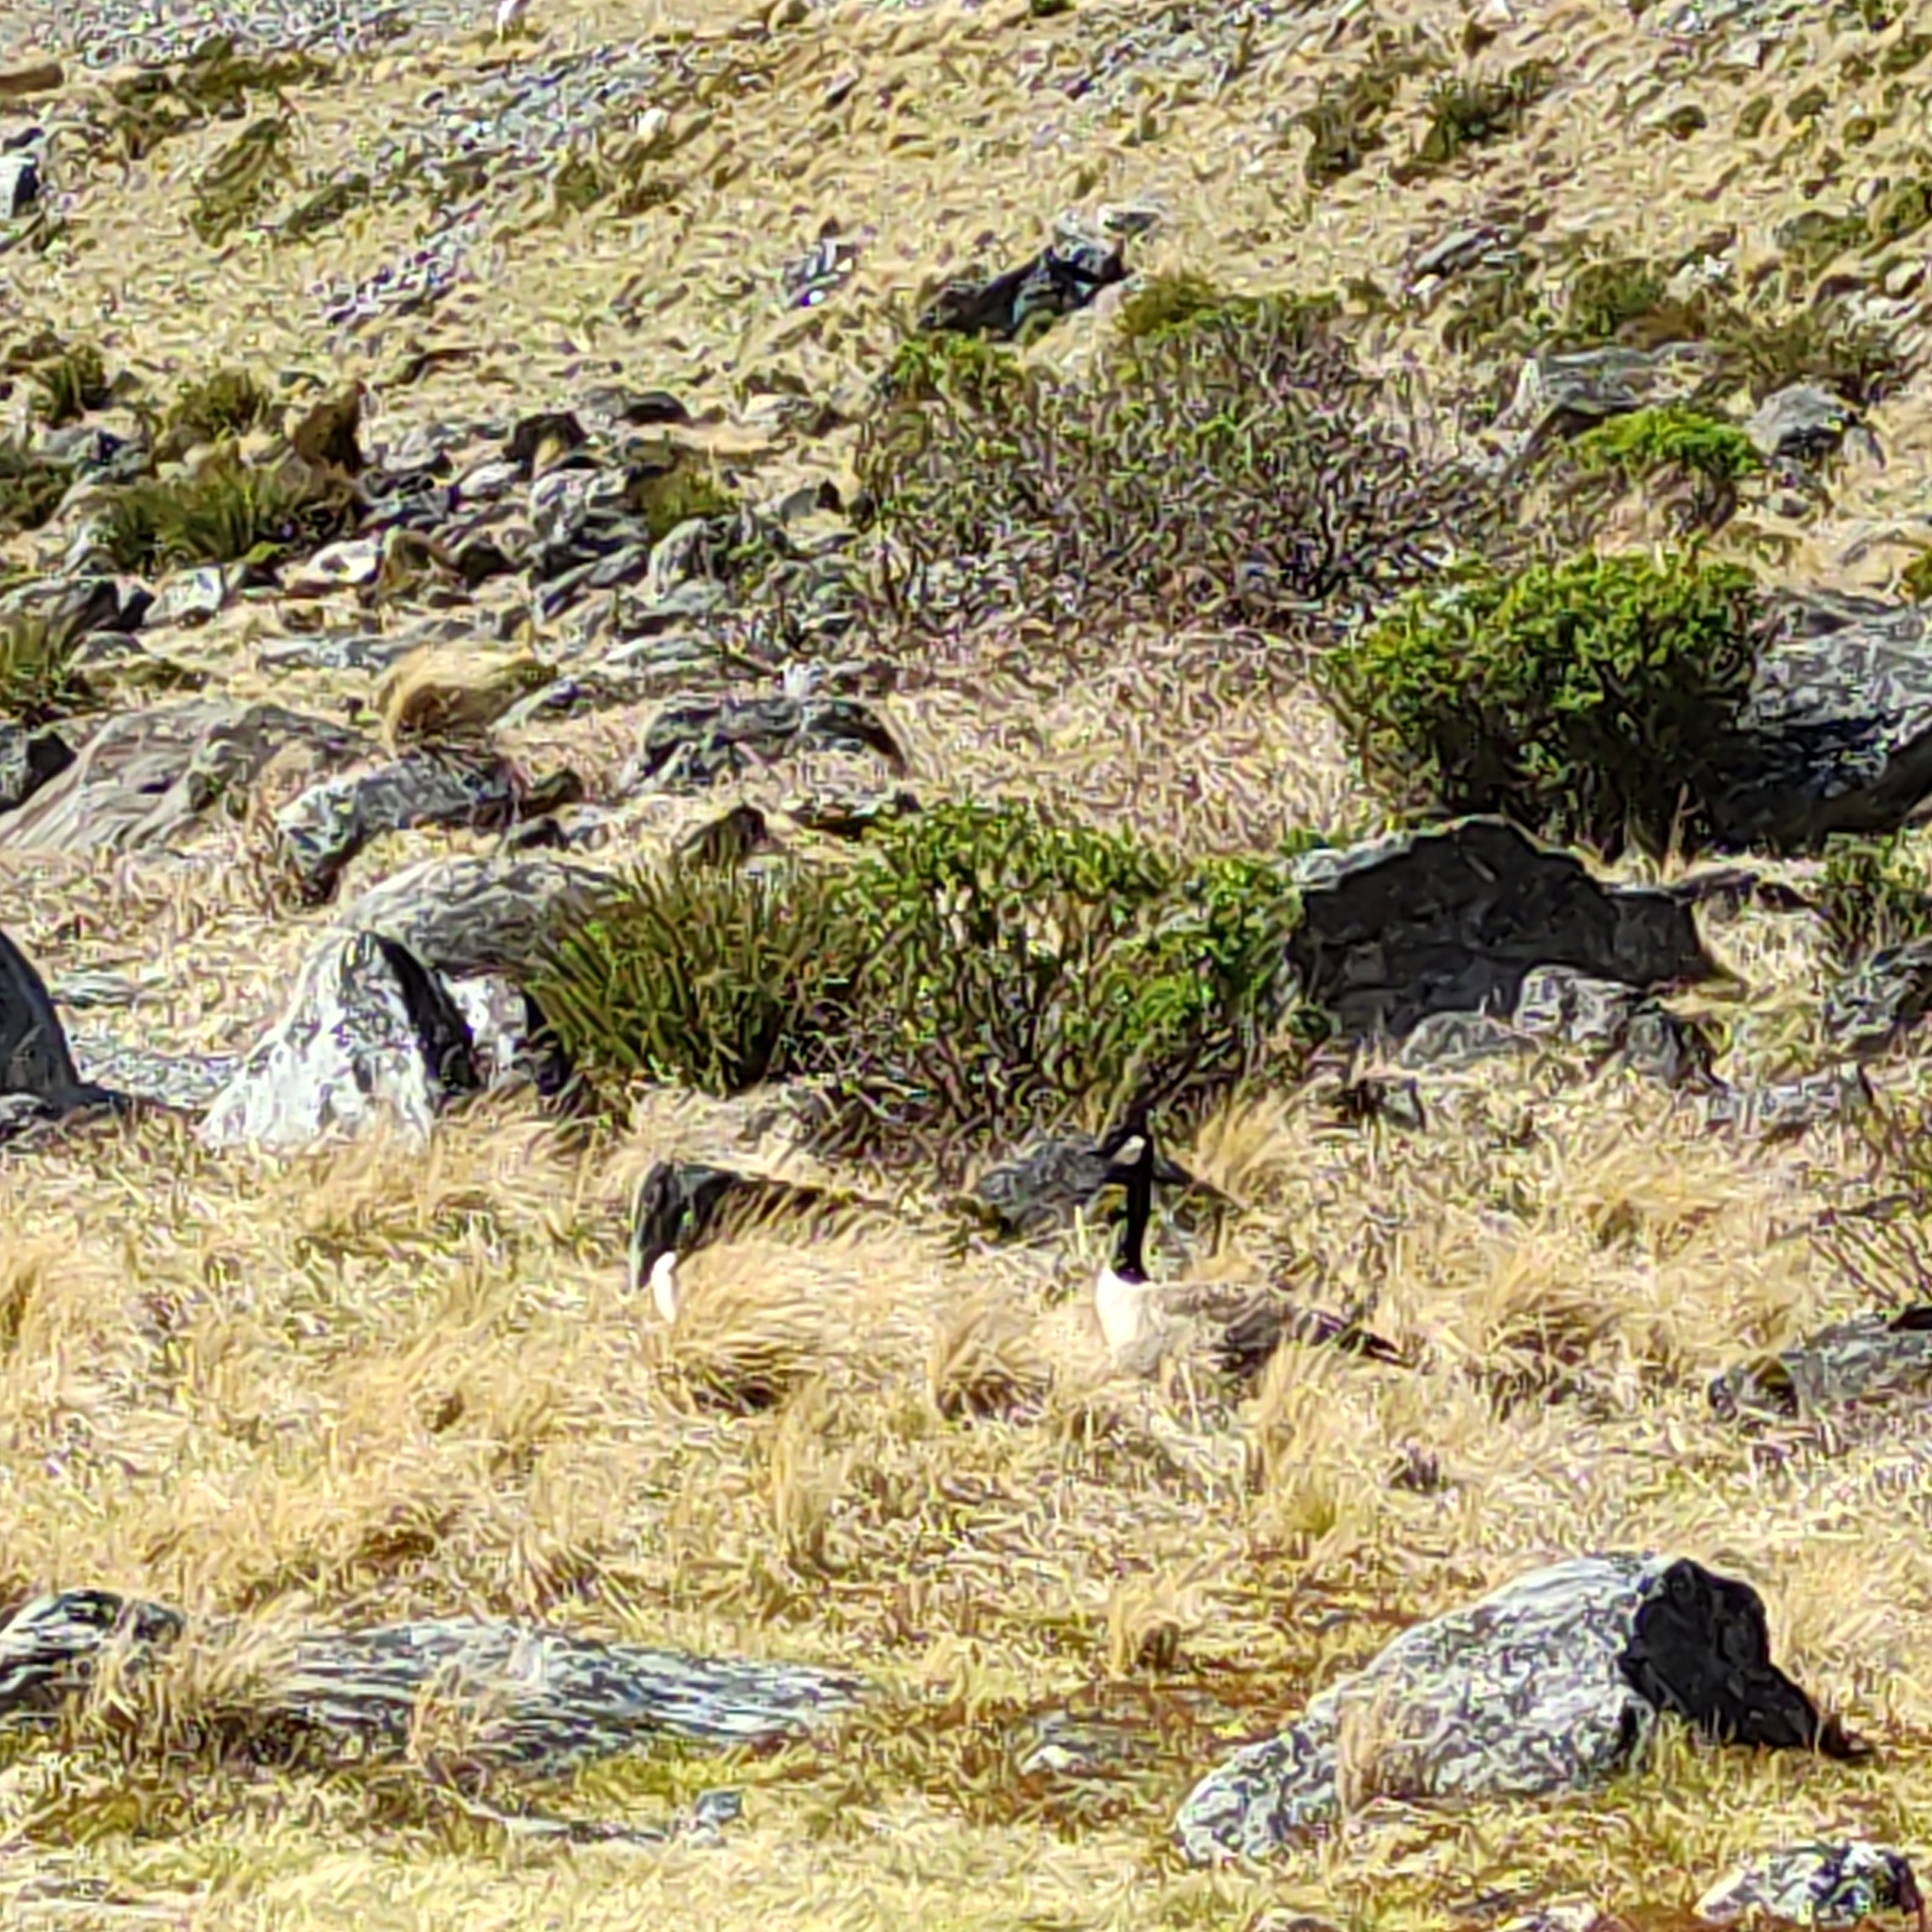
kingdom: Animalia
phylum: Chordata
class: Aves
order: Anseriformes
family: Anatidae
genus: Branta
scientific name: Branta canadensis
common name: Canada goose
